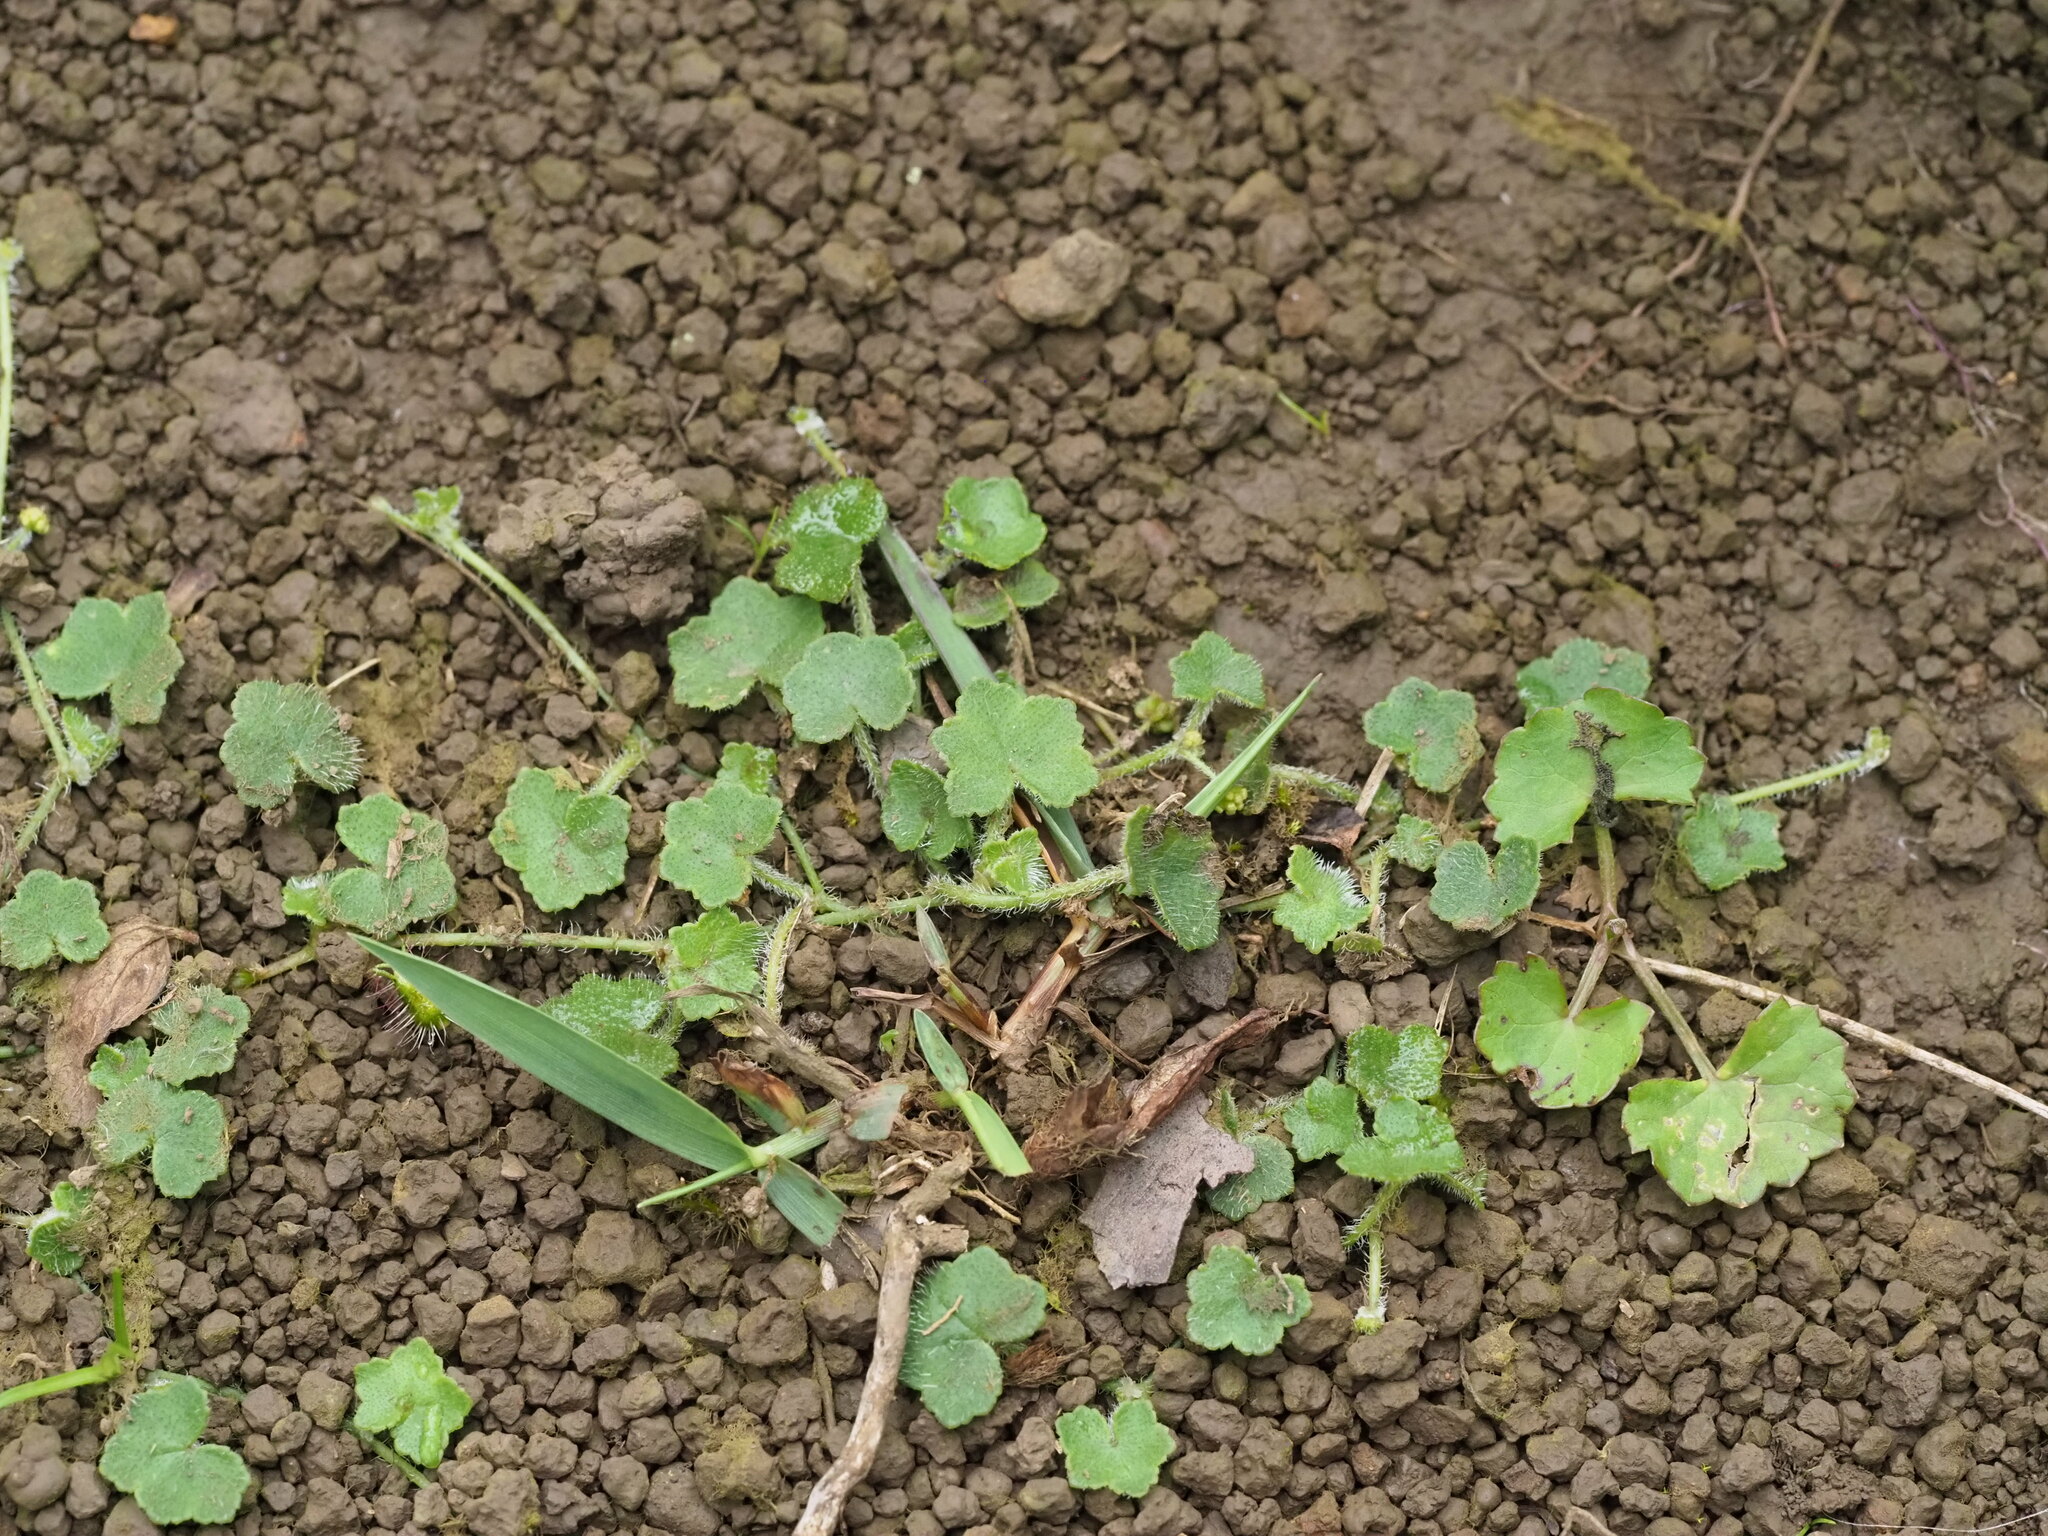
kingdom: Plantae
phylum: Tracheophyta
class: Magnoliopsida
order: Apiales
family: Araliaceae
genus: Hydrocotyle
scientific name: Hydrocotyle bowlesioides
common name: Largeleaf marshpennywort
